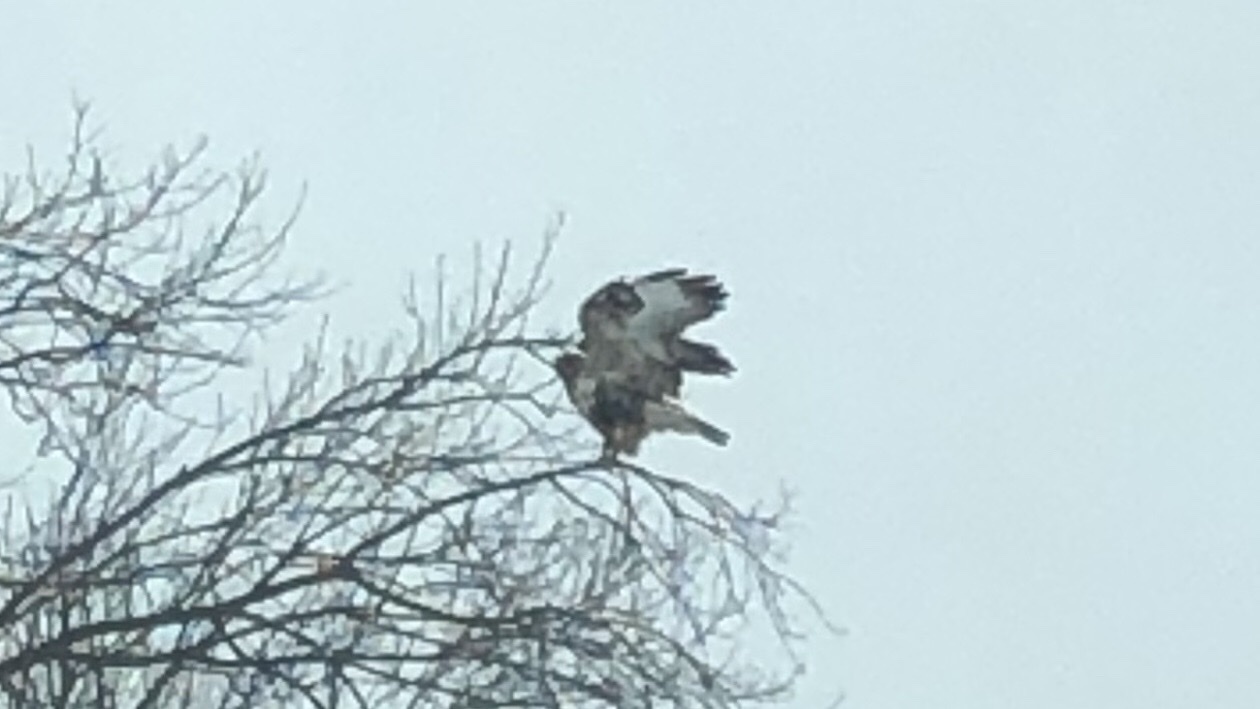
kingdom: Animalia
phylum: Chordata
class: Aves
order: Accipitriformes
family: Accipitridae
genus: Buteo
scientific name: Buteo lagopus
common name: Rough-legged buzzard
